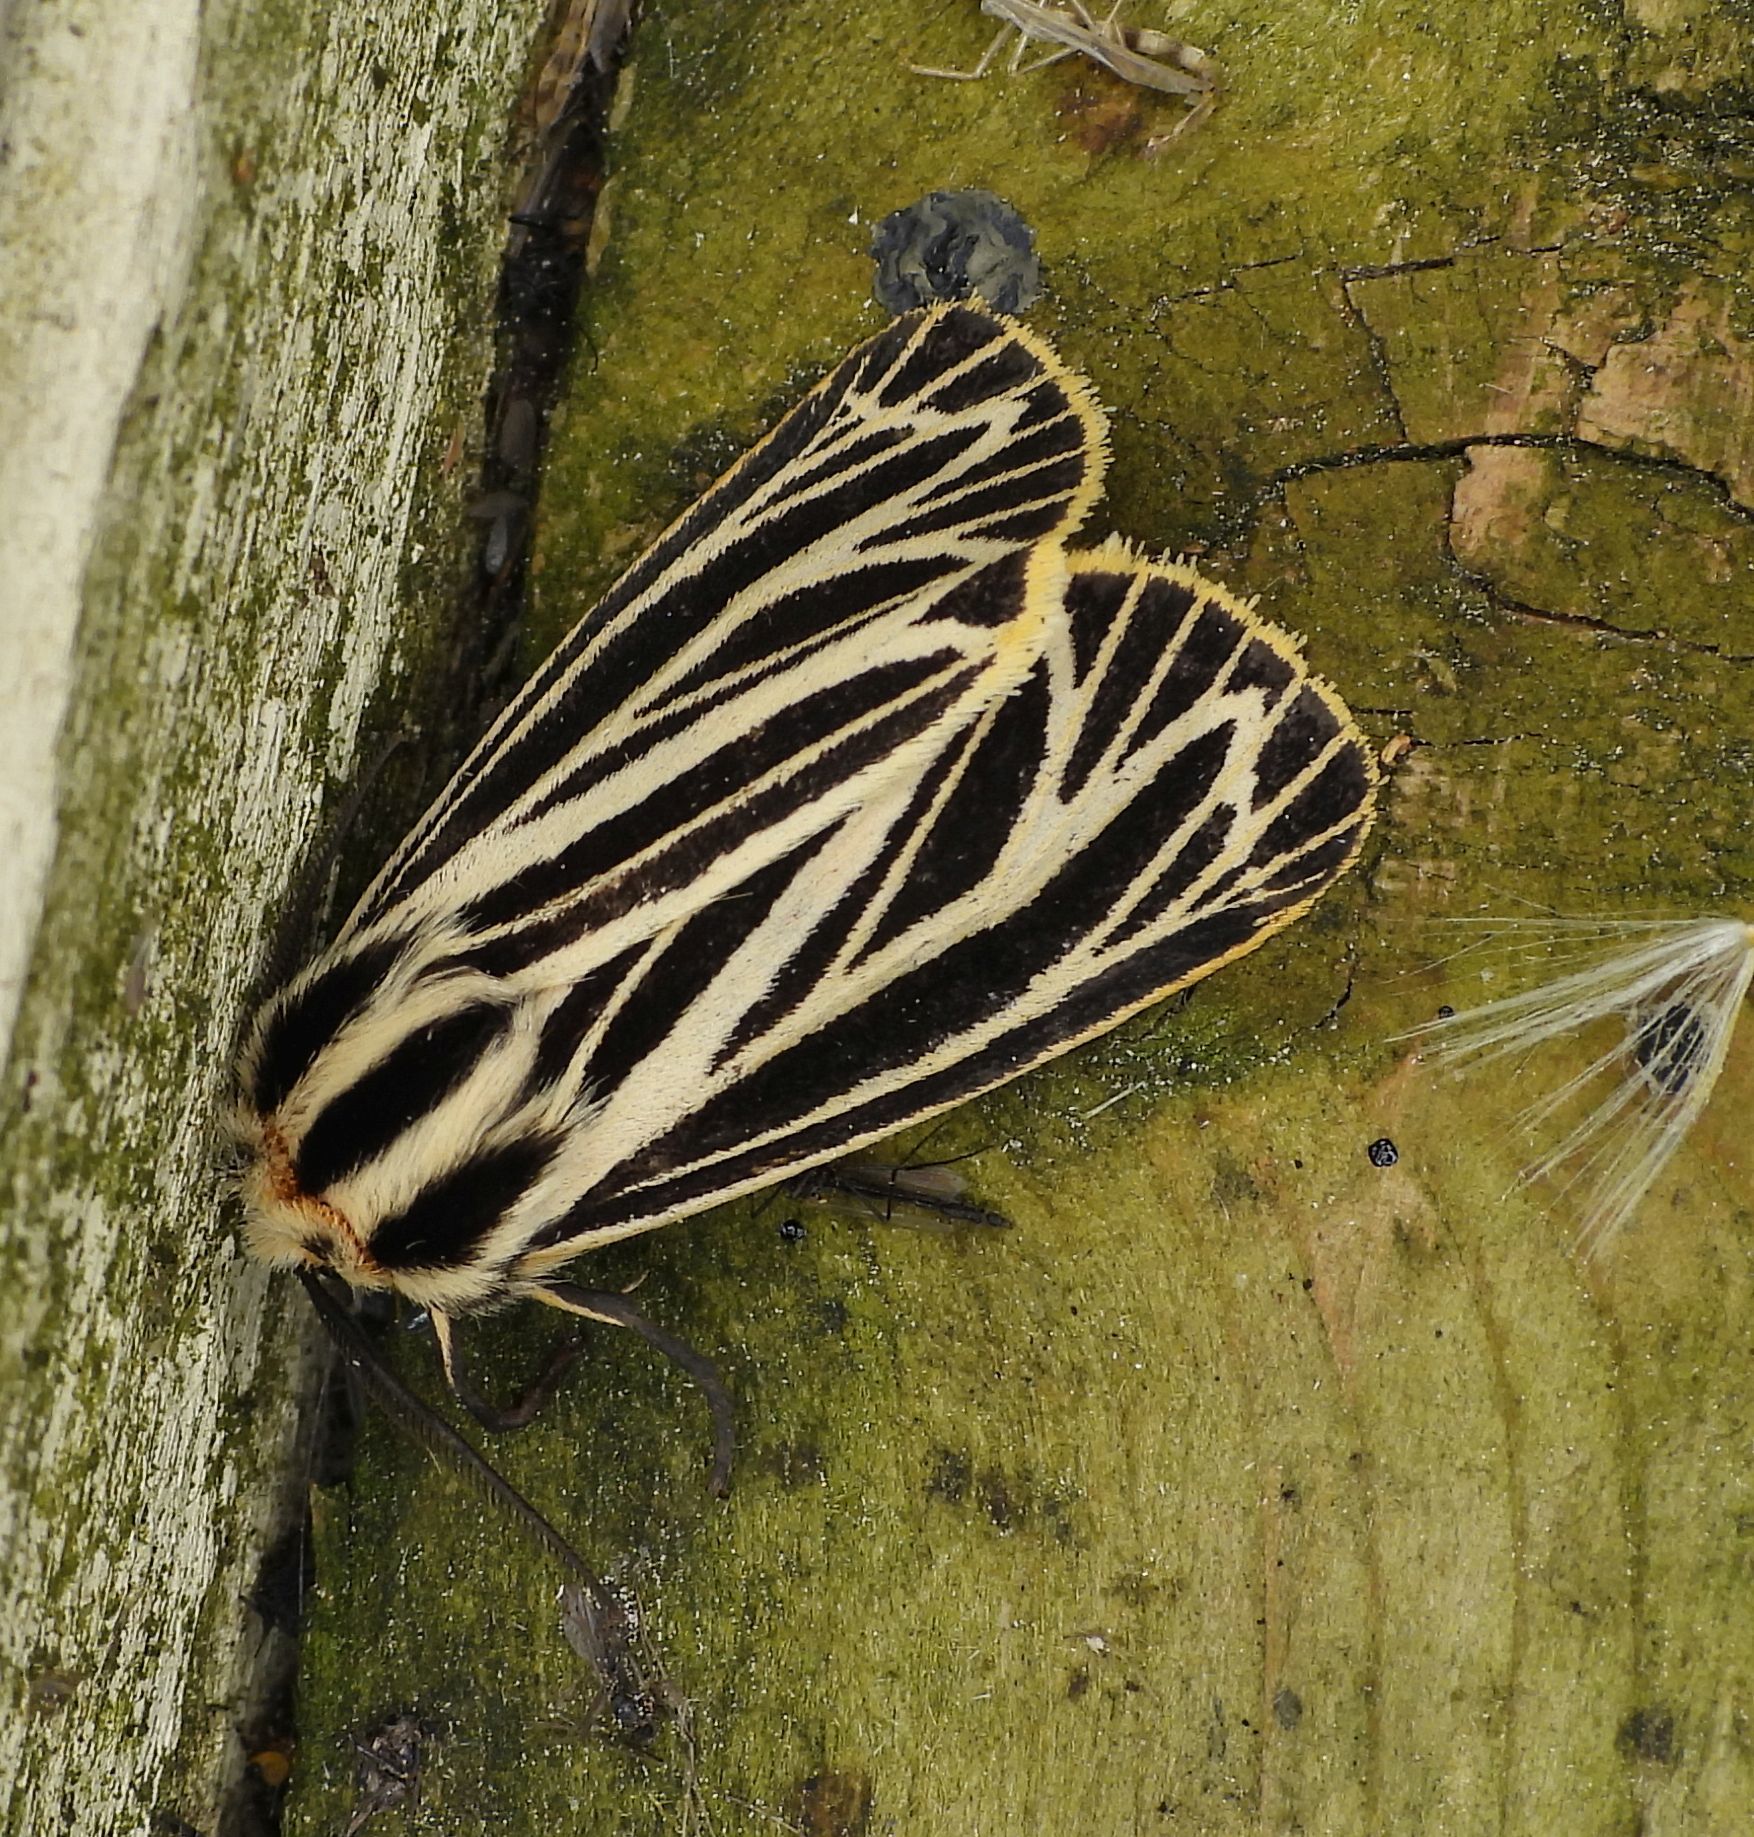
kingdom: Animalia
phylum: Arthropoda
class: Insecta
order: Lepidoptera
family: Erebidae
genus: Grammia
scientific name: Grammia virguncula
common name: Little tiger moth
